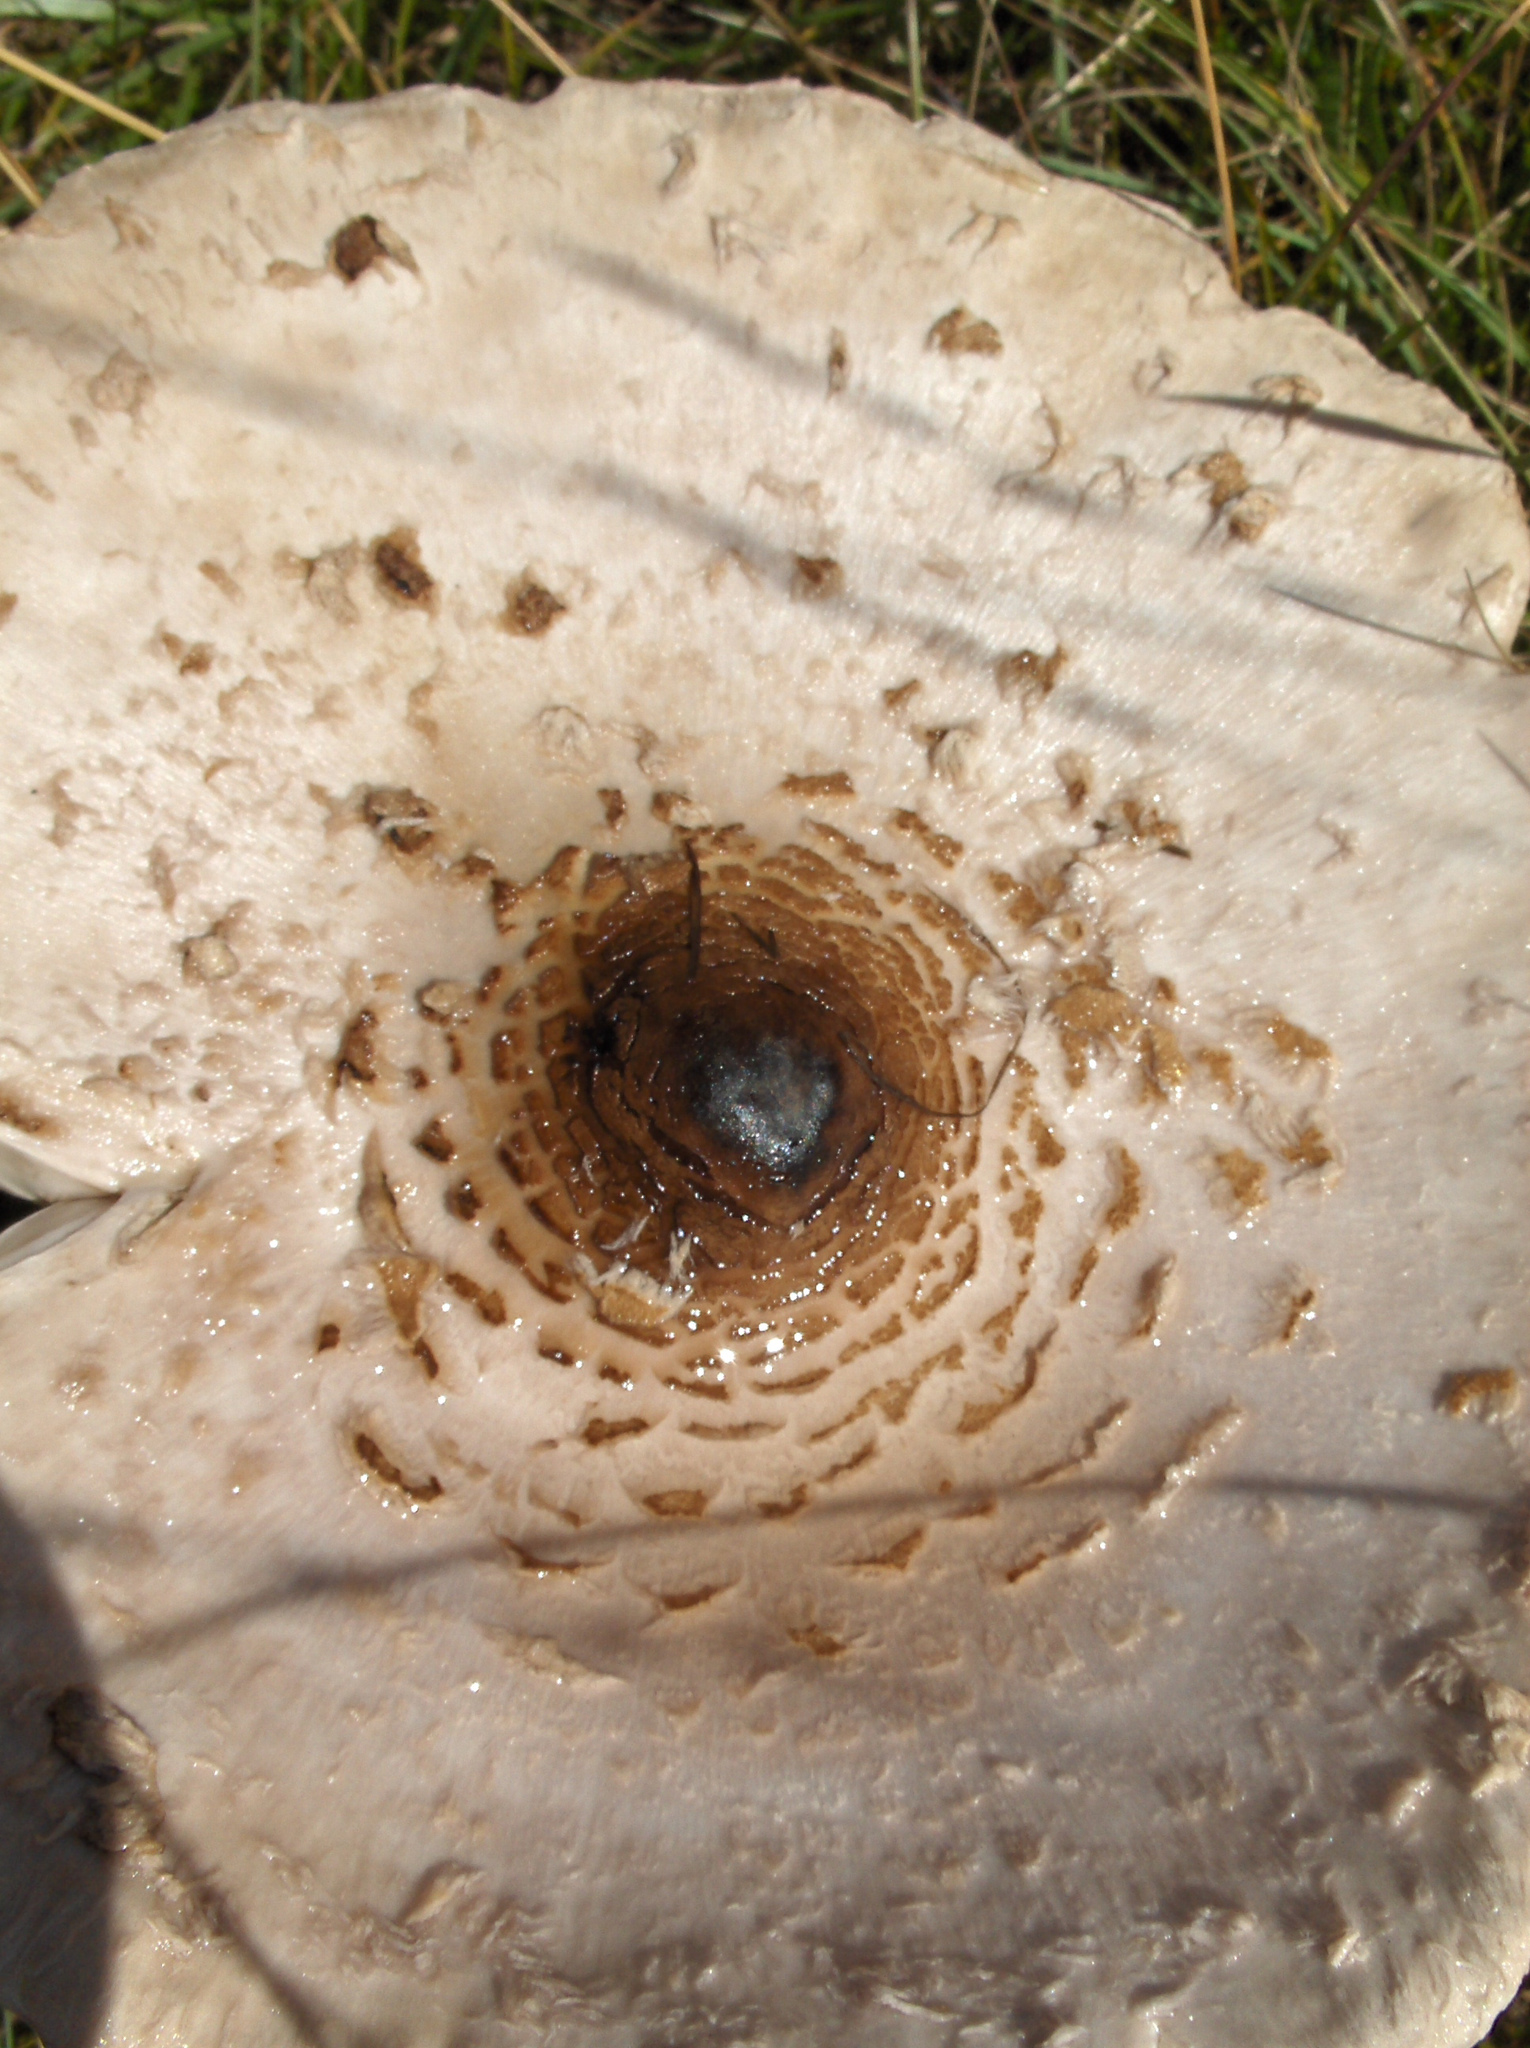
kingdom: Fungi
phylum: Basidiomycota
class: Agaricomycetes
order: Agaricales
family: Agaricaceae
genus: Macrolepiota
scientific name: Macrolepiota procera
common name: Parasol
